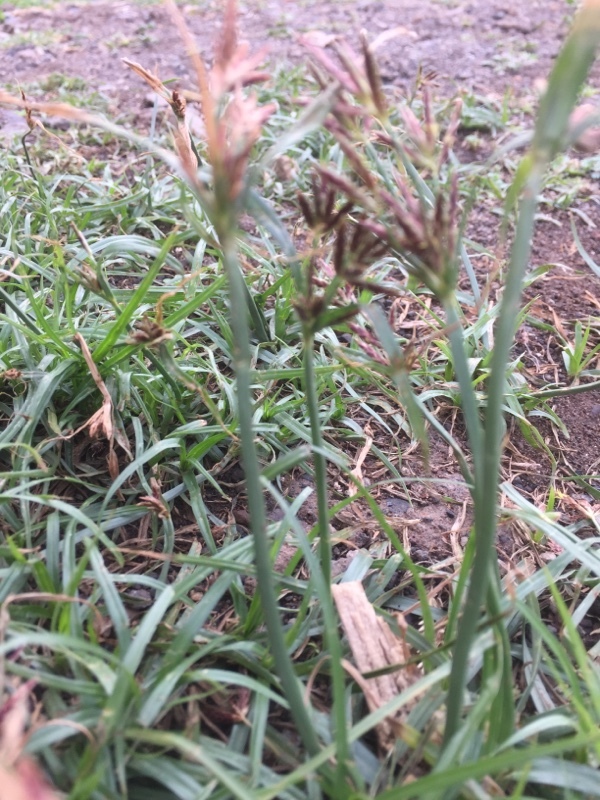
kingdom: Plantae
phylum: Tracheophyta
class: Liliopsida
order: Poales
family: Cyperaceae
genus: Cyperus
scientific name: Cyperus rotundus
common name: Nutgrass
